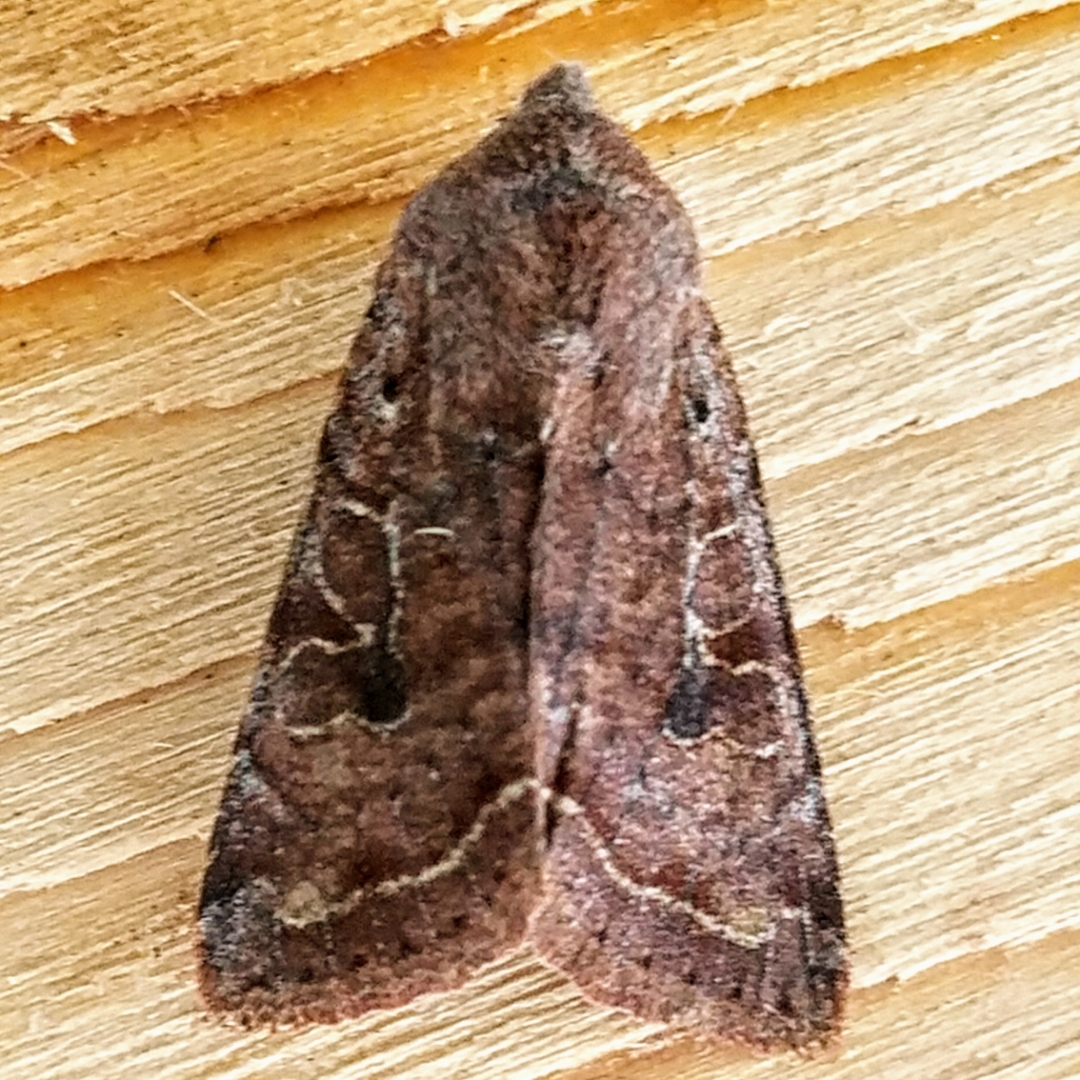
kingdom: Animalia
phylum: Arthropoda
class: Insecta
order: Lepidoptera
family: Noctuidae
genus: Orthosia
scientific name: Orthosia hibisci
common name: Green fruitworm
